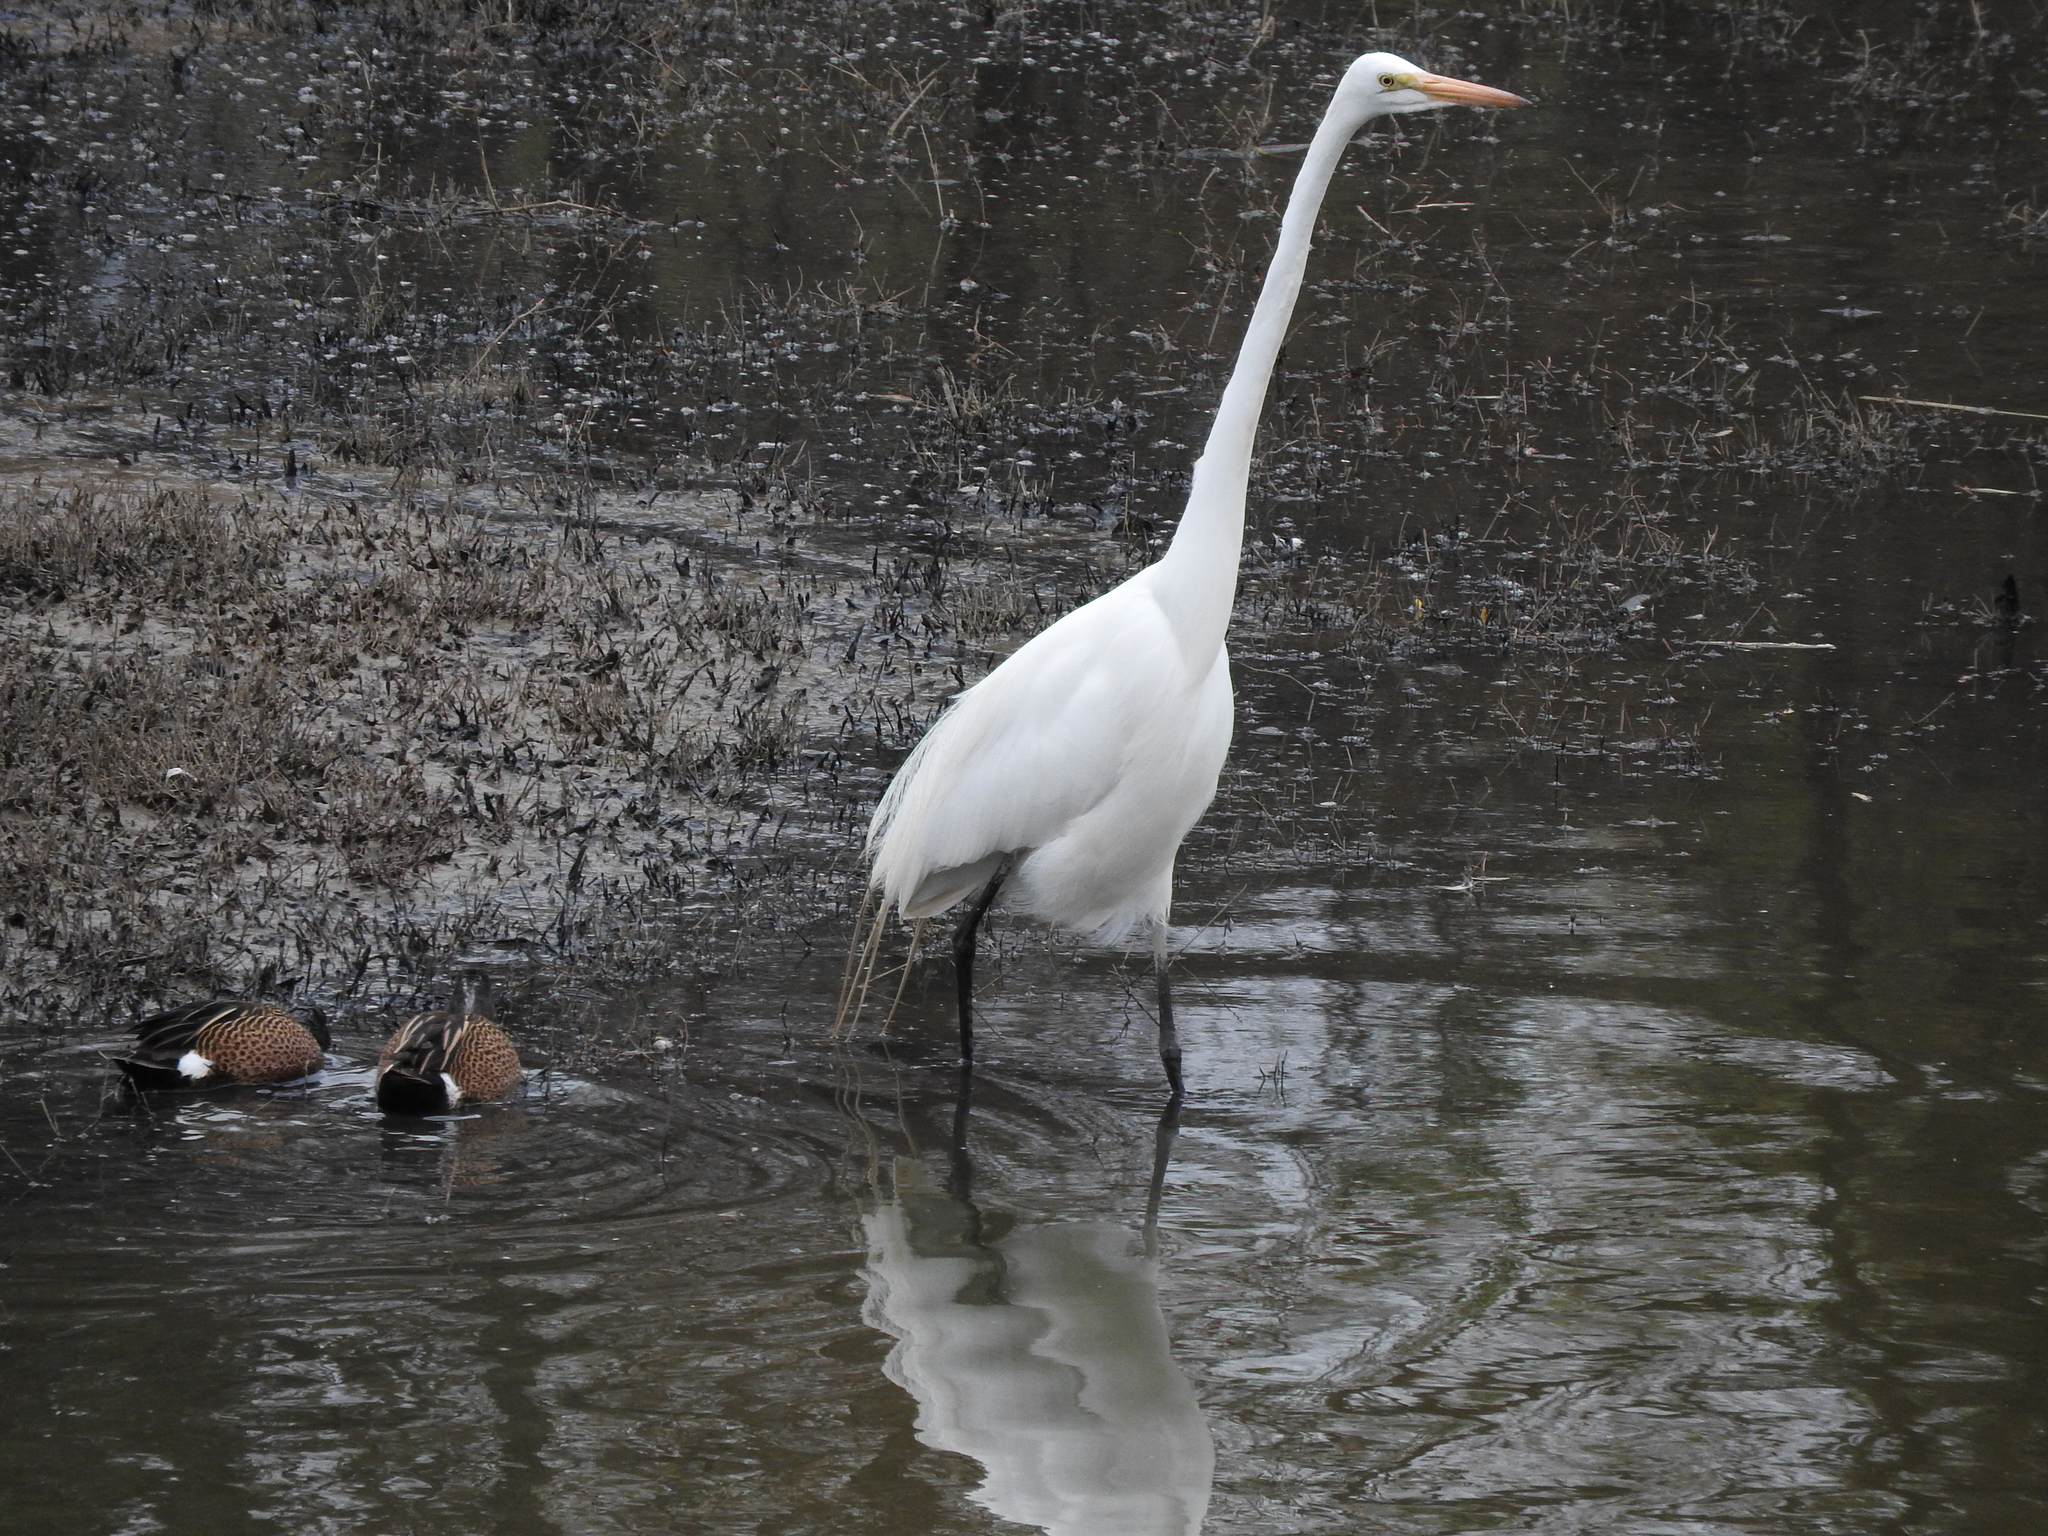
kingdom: Animalia
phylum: Chordata
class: Aves
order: Pelecaniformes
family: Ardeidae
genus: Ardea
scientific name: Ardea alba
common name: Great egret
